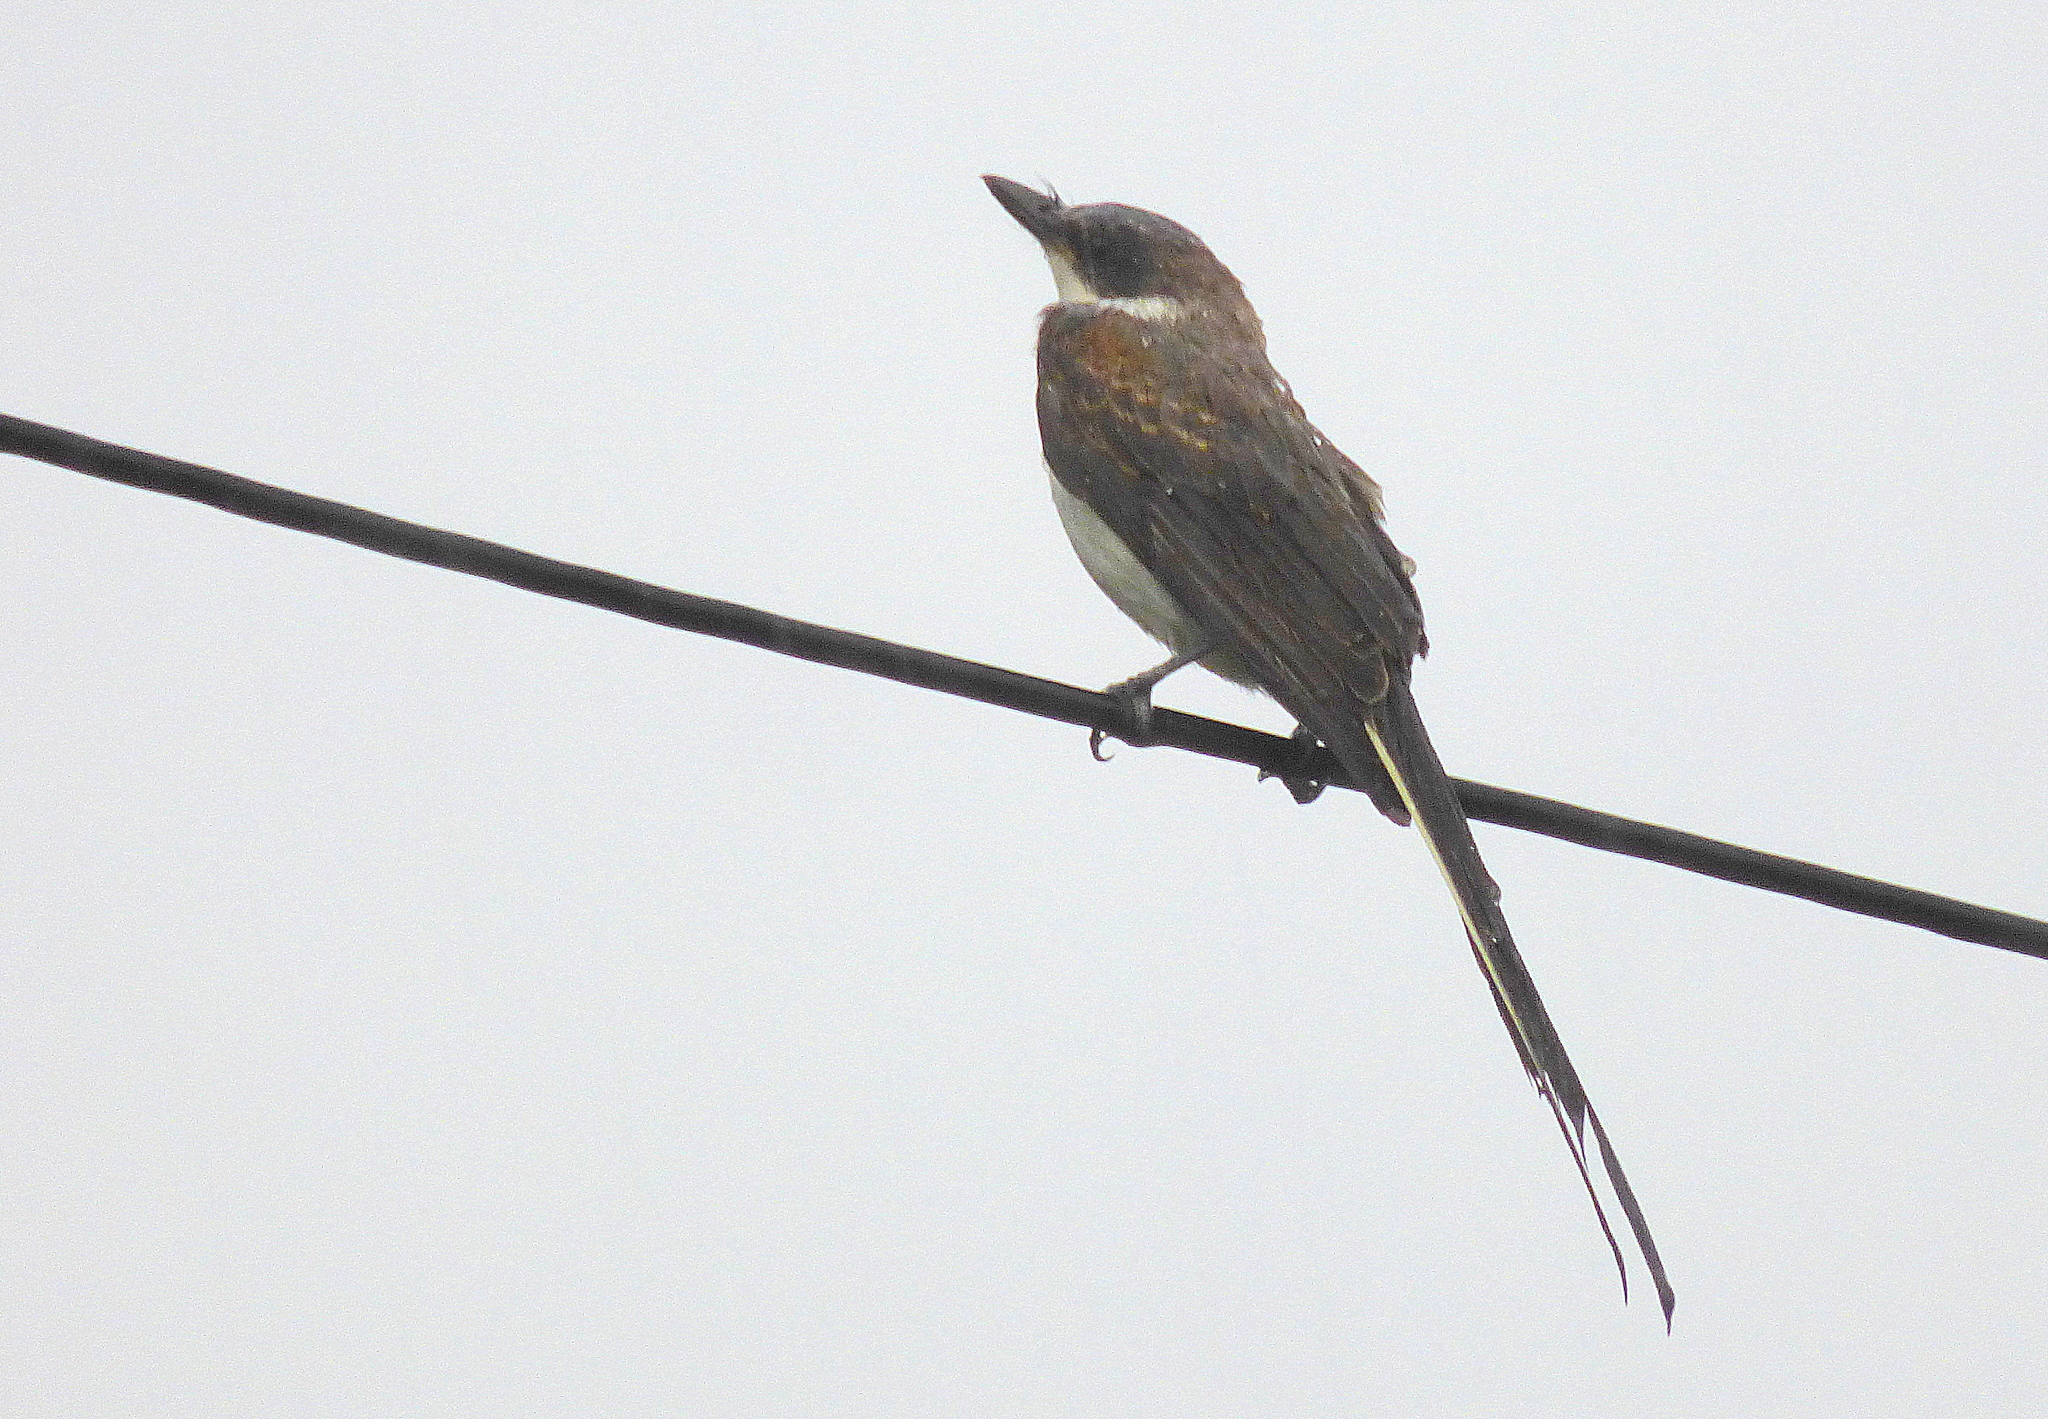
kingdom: Animalia
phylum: Chordata
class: Aves
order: Passeriformes
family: Tyrannidae
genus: Tyrannus
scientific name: Tyrannus savana
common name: Fork-tailed flycatcher
